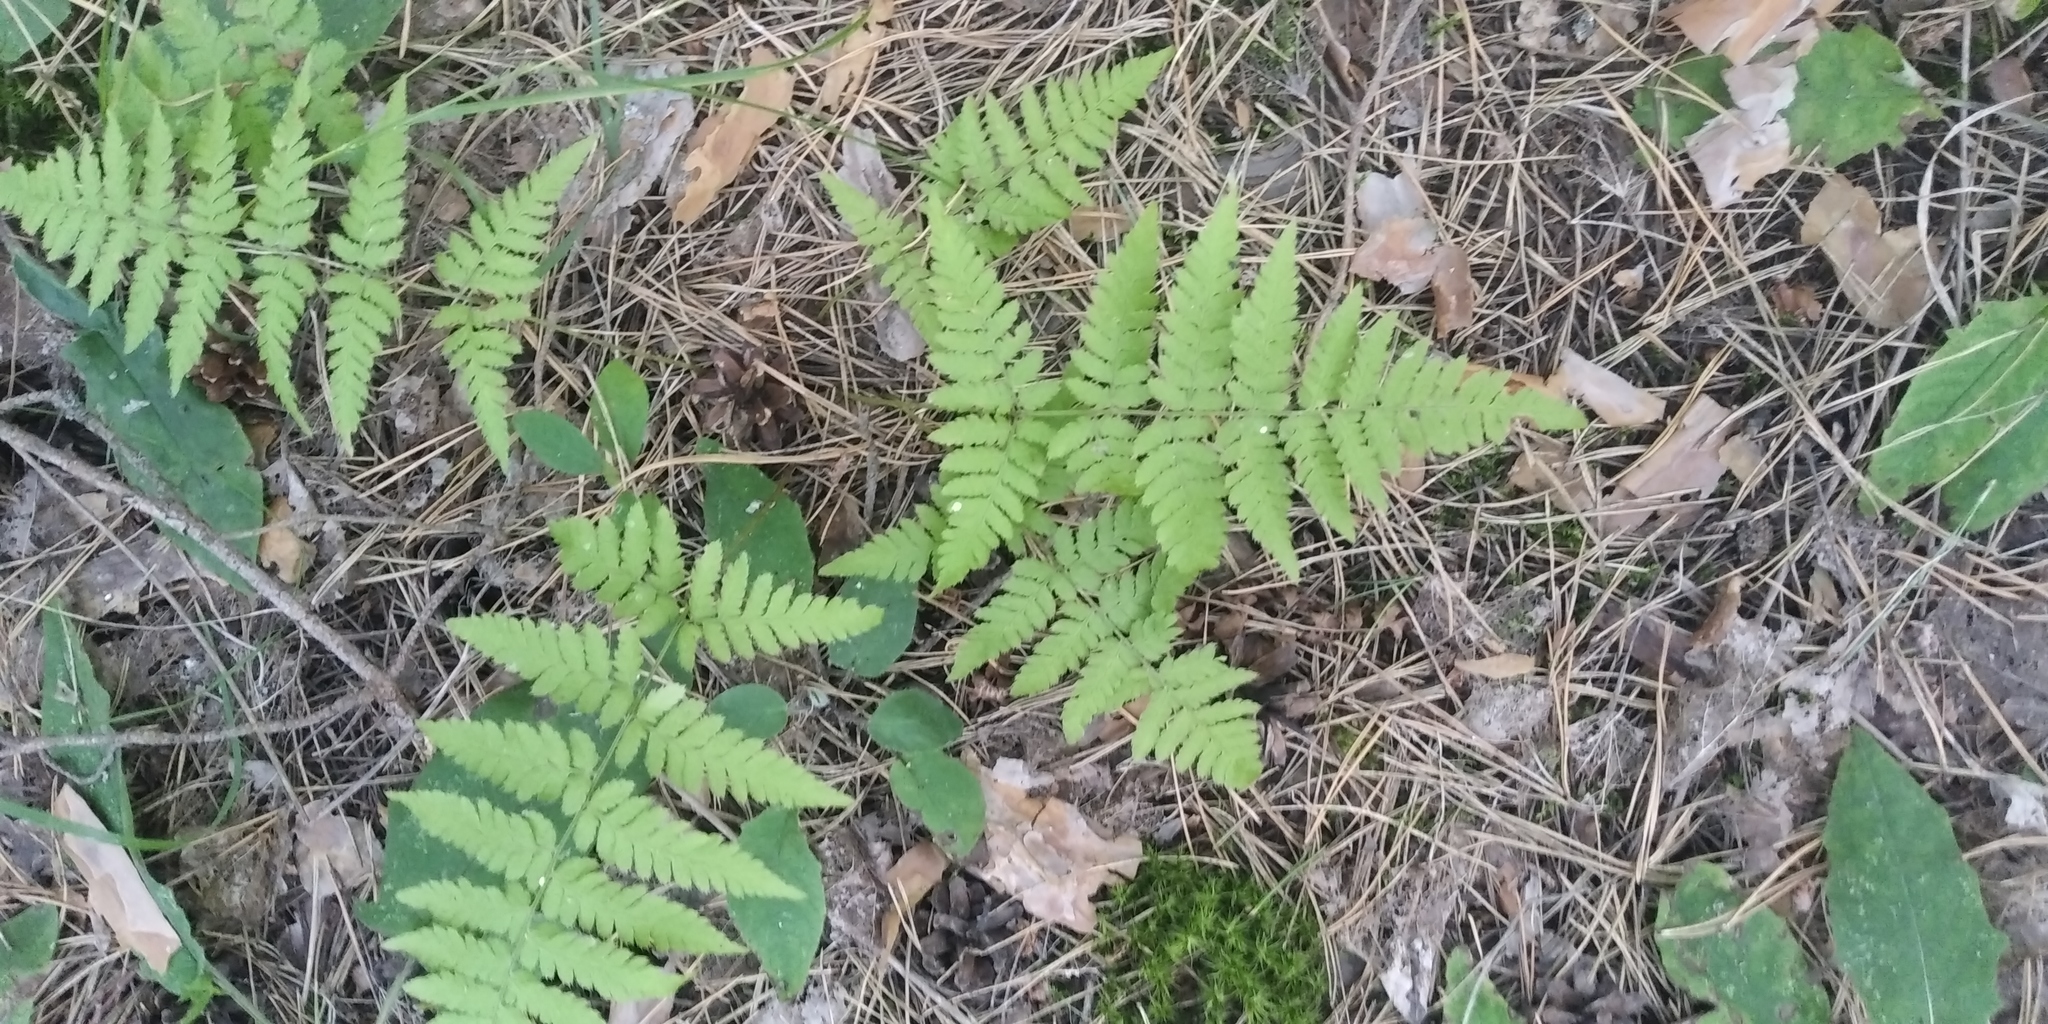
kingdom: Plantae
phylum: Tracheophyta
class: Polypodiopsida
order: Polypodiales
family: Dryopteridaceae
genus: Dryopteris
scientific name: Dryopteris carthusiana
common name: Narrow buckler-fern
